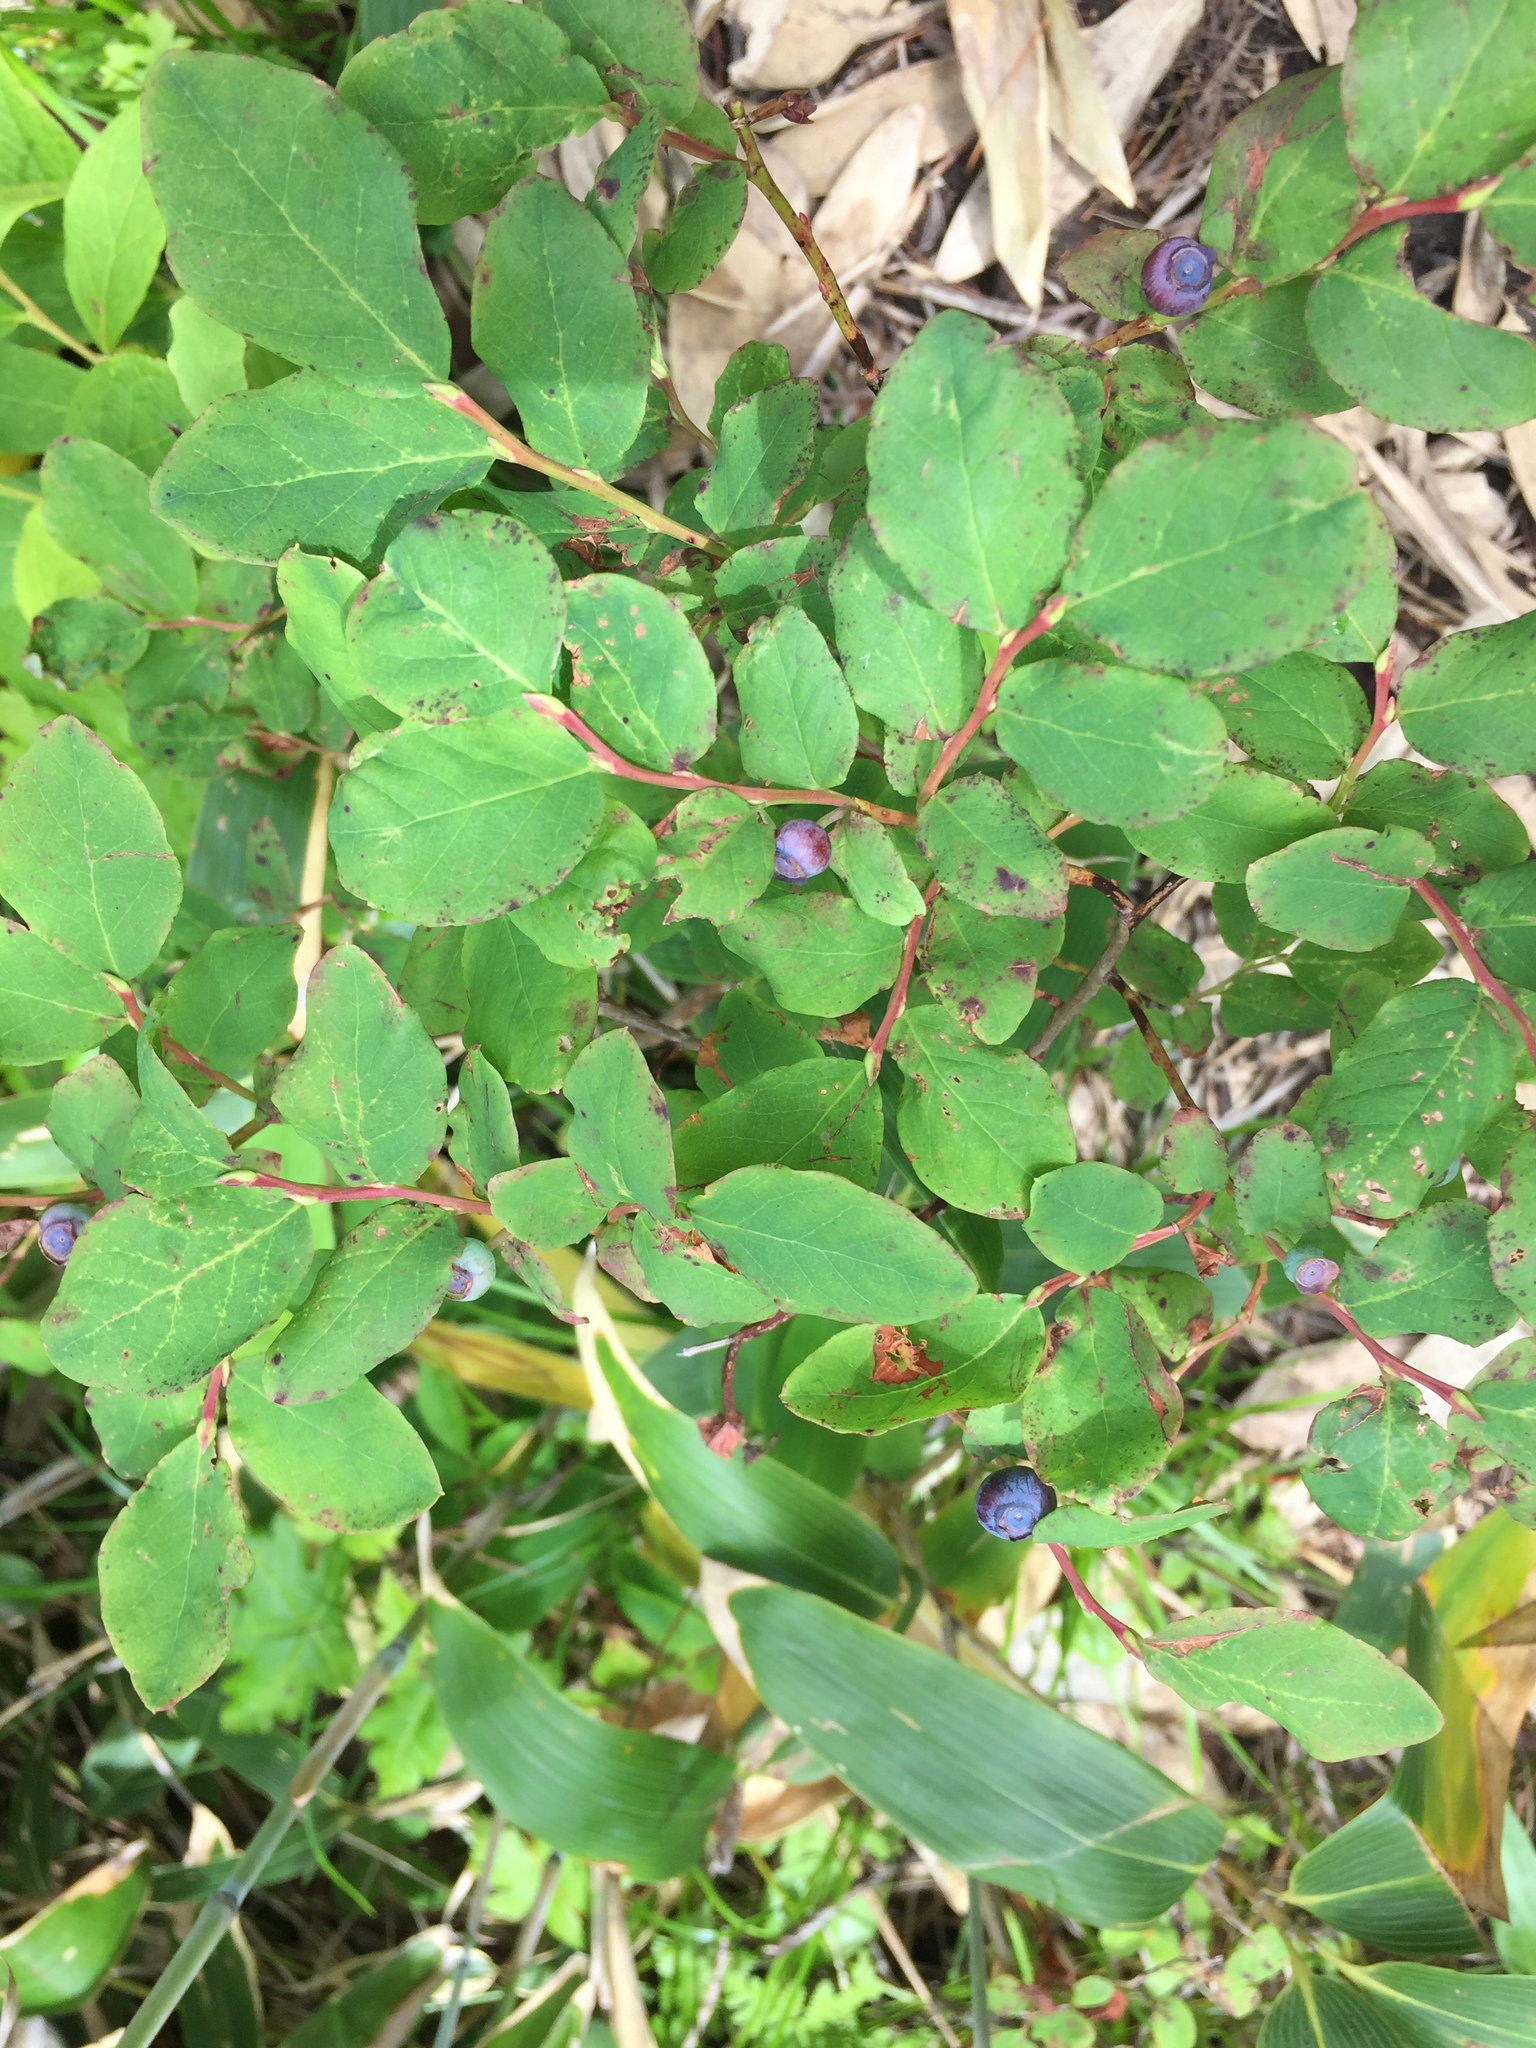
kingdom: Plantae
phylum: Tracheophyta
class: Magnoliopsida
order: Ericales
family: Ericaceae
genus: Vaccinium
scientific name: Vaccinium ovalifolium
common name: Early blueberry
